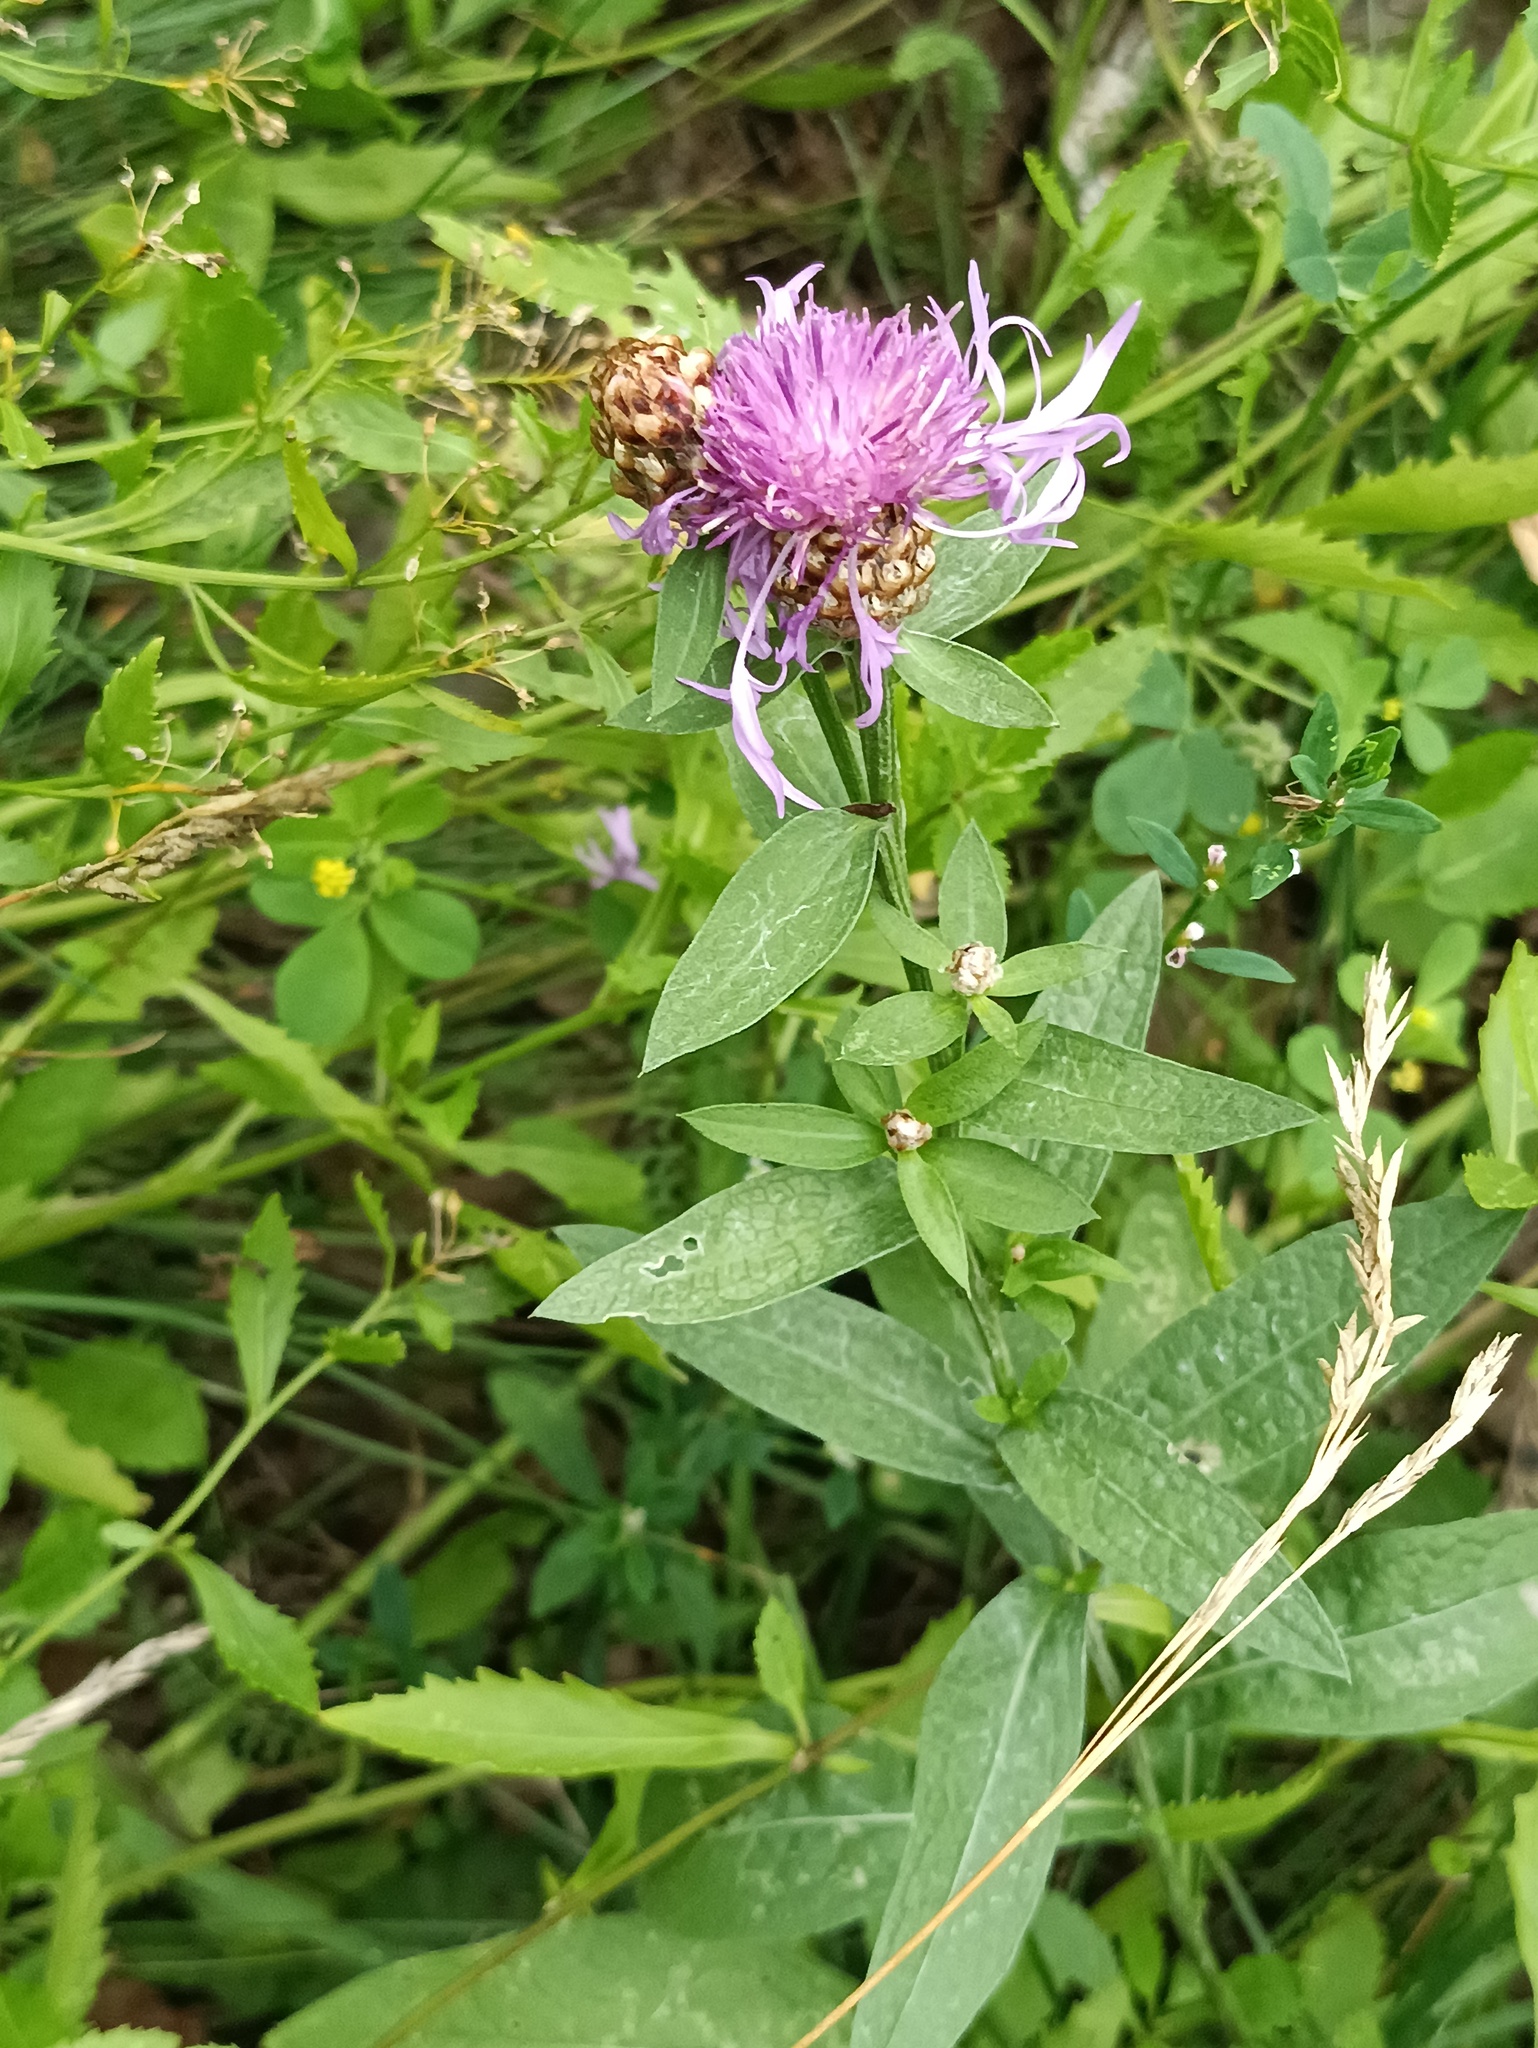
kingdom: Plantae
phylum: Tracheophyta
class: Magnoliopsida
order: Asterales
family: Asteraceae
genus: Centaurea
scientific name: Centaurea jacea
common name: Brown knapweed
